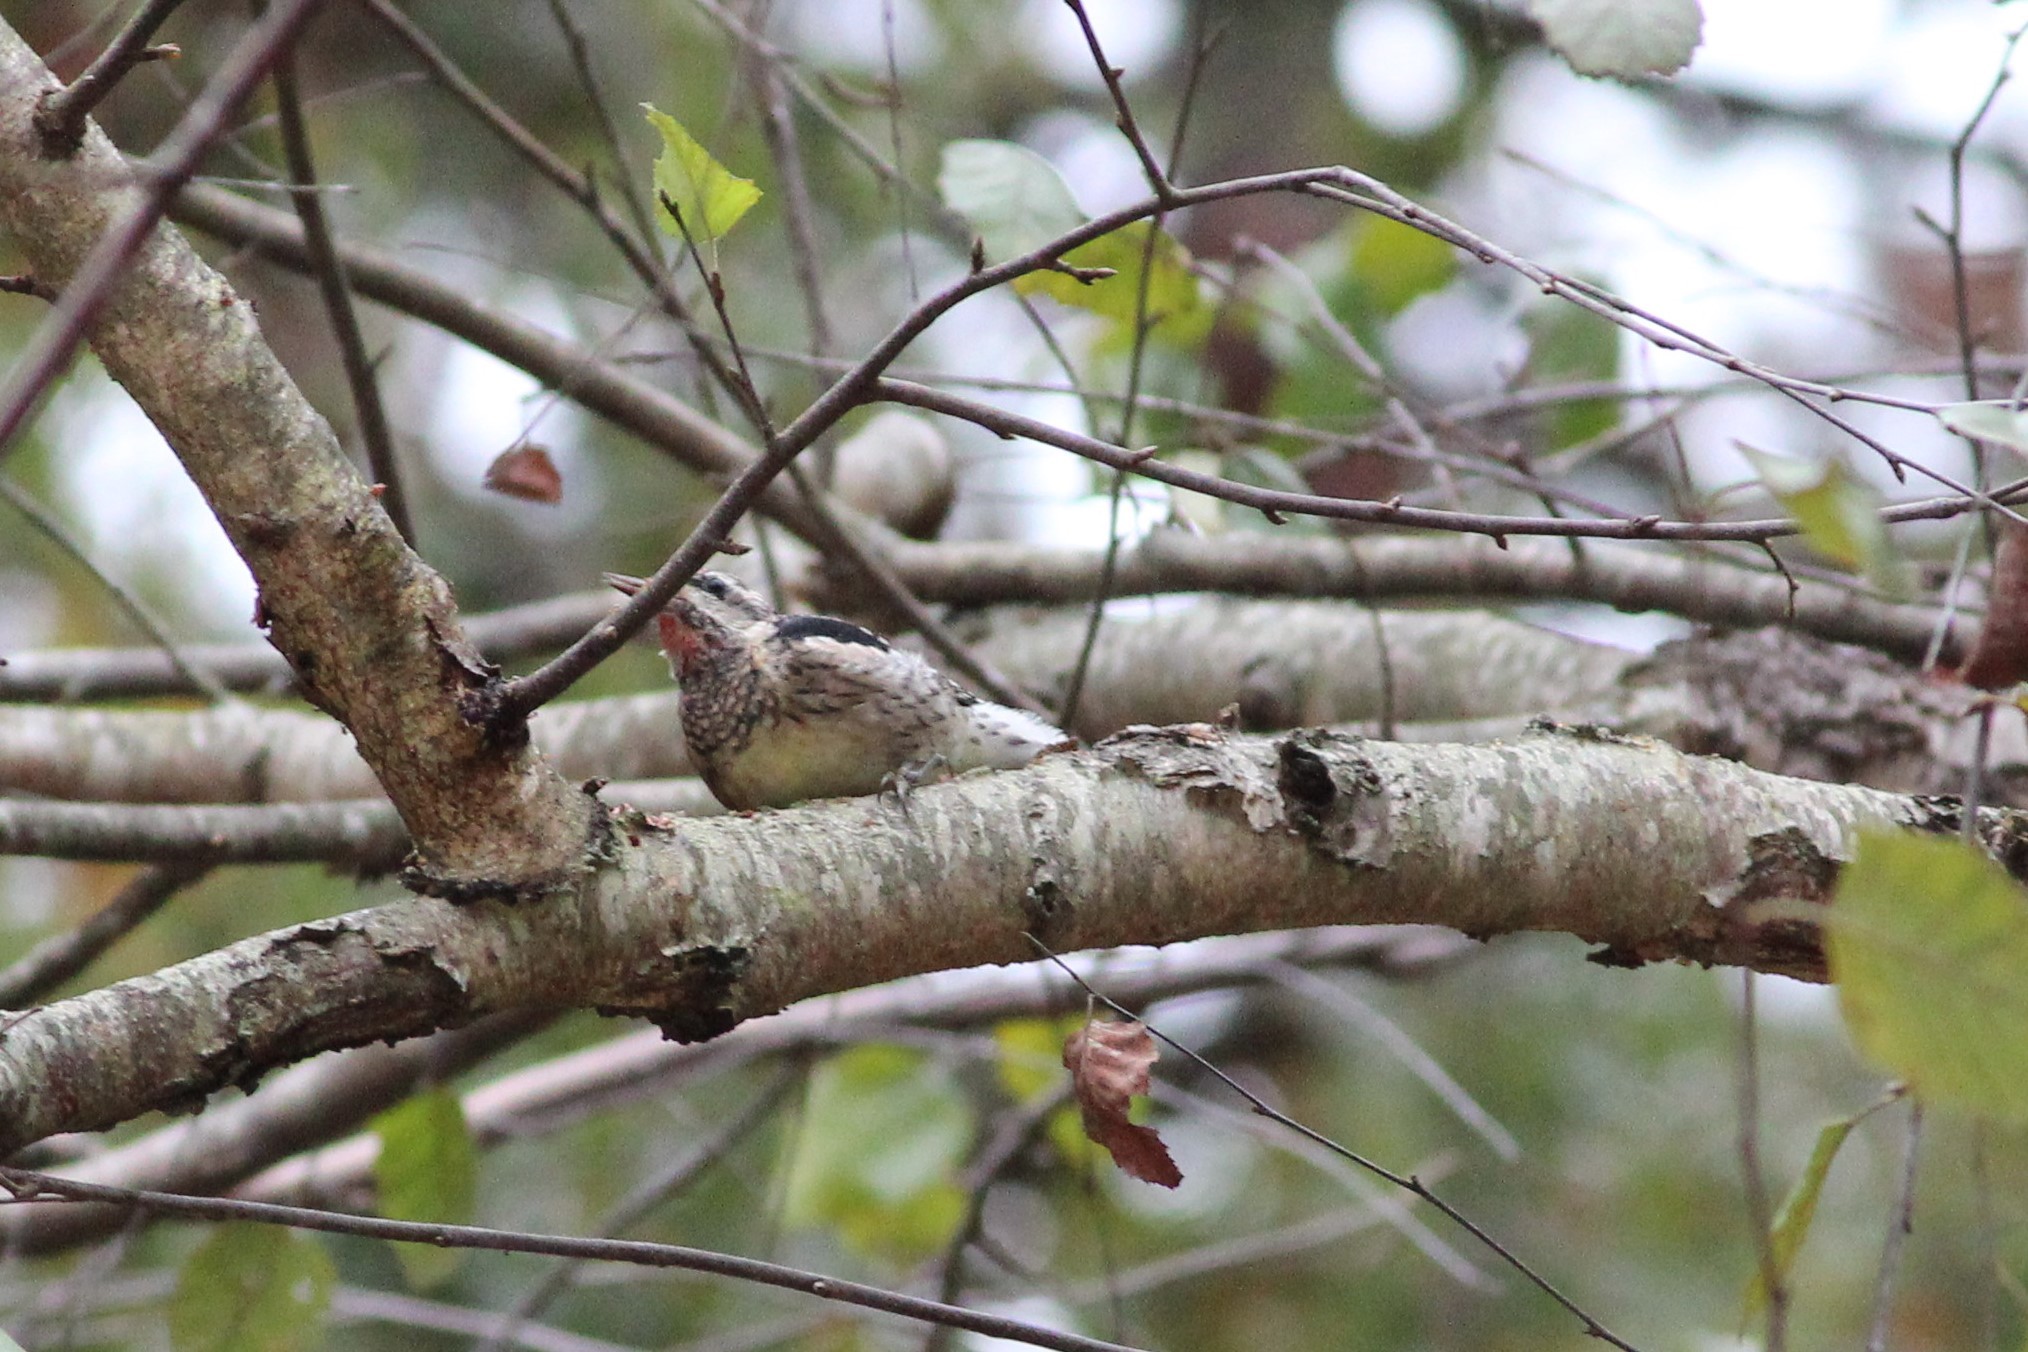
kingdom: Animalia
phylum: Chordata
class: Aves
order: Piciformes
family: Picidae
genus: Sphyrapicus
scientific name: Sphyrapicus varius
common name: Yellow-bellied sapsucker
